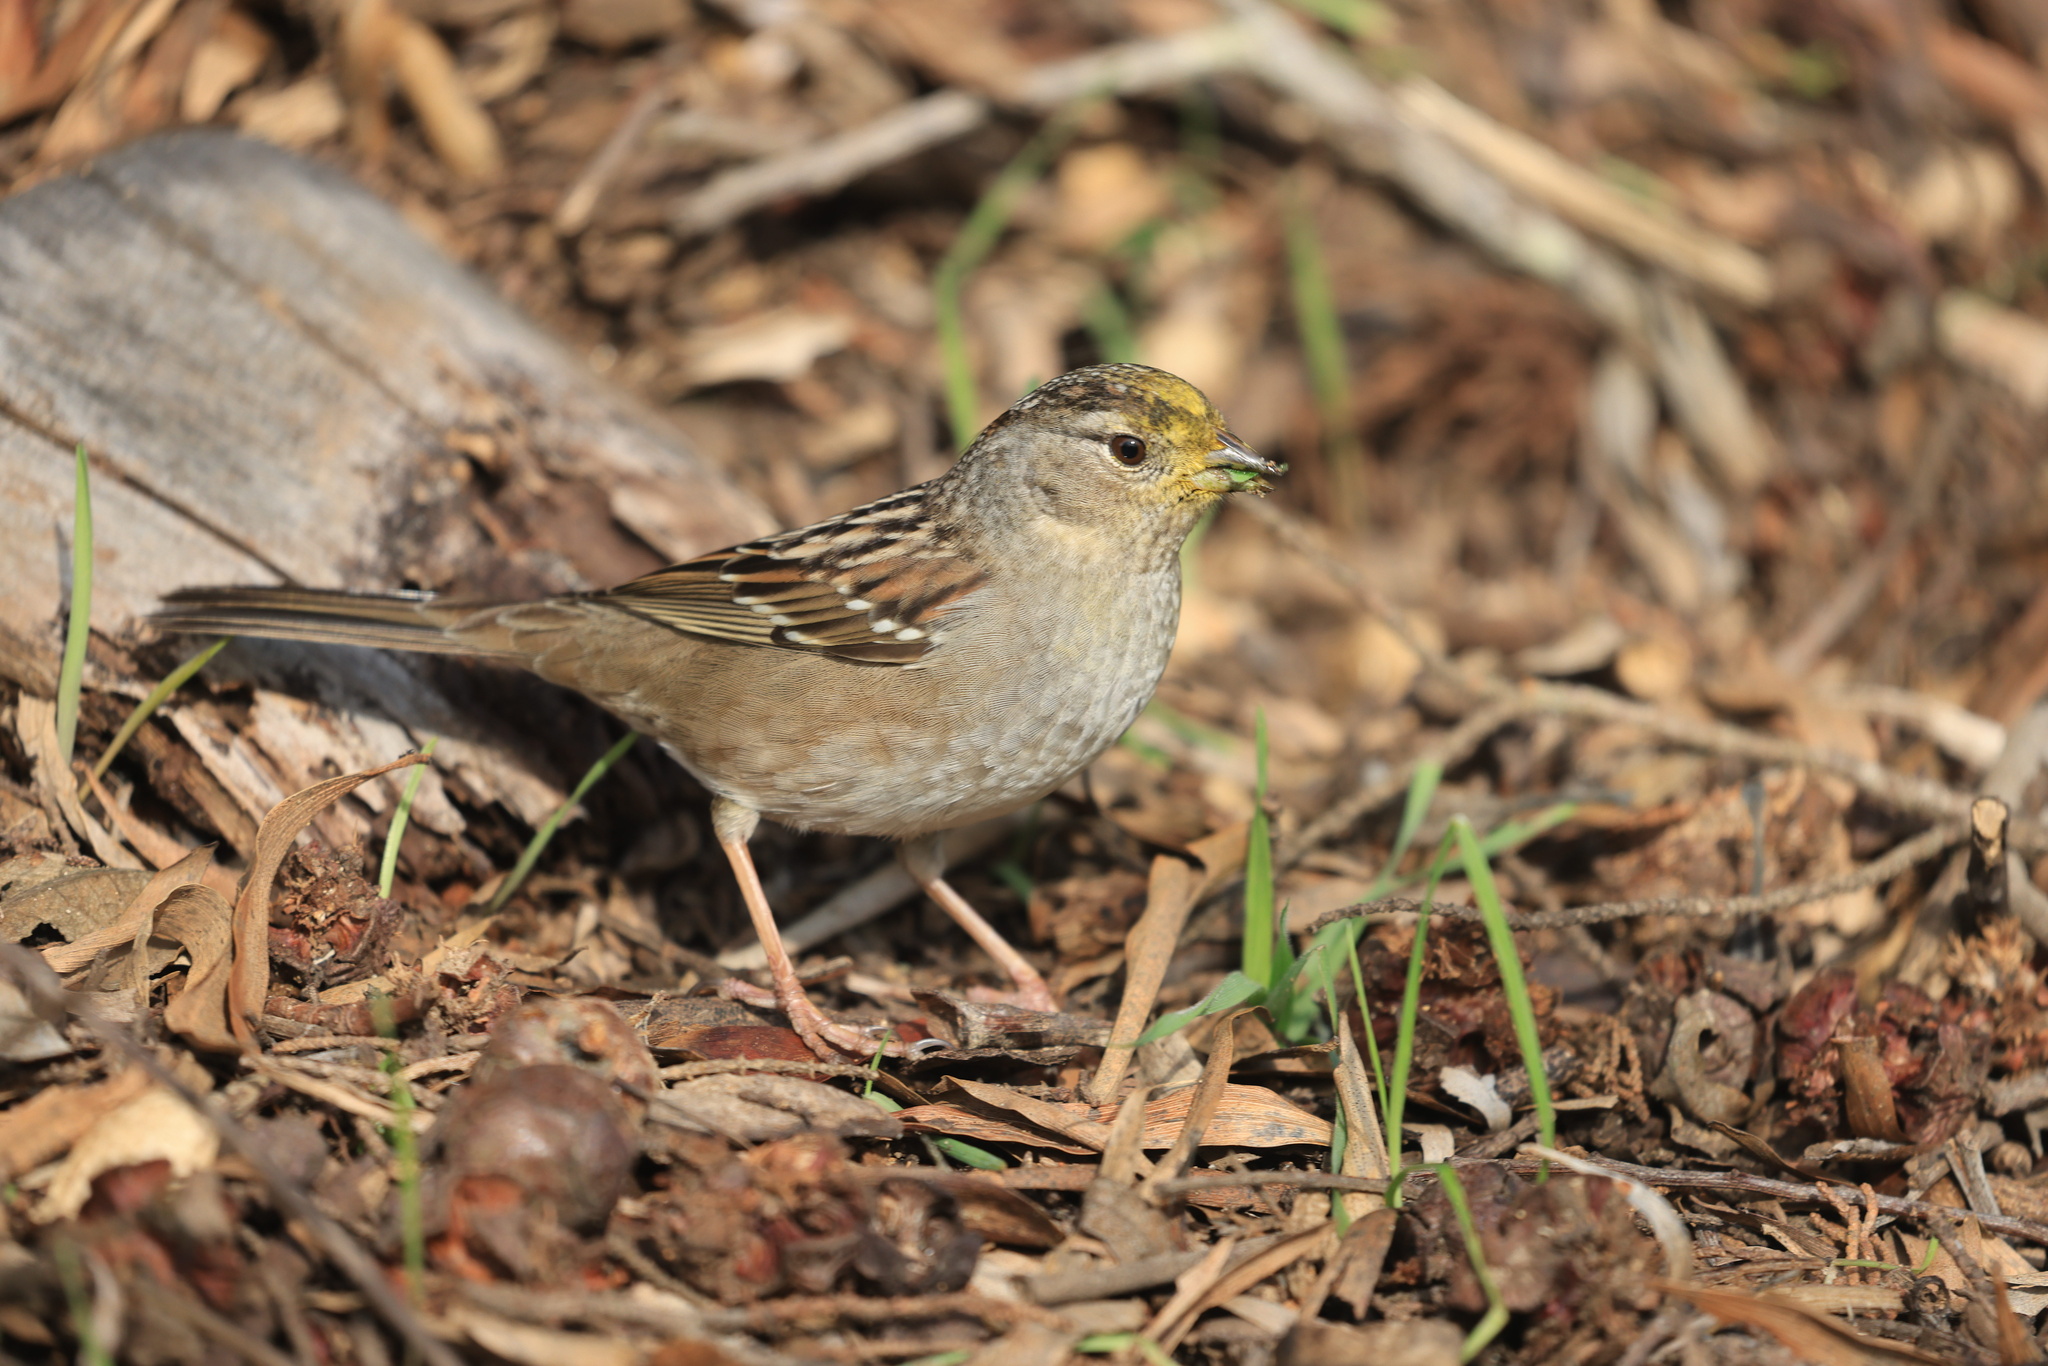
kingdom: Animalia
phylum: Chordata
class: Aves
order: Passeriformes
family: Passerellidae
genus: Zonotrichia
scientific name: Zonotrichia atricapilla
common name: Golden-crowned sparrow
